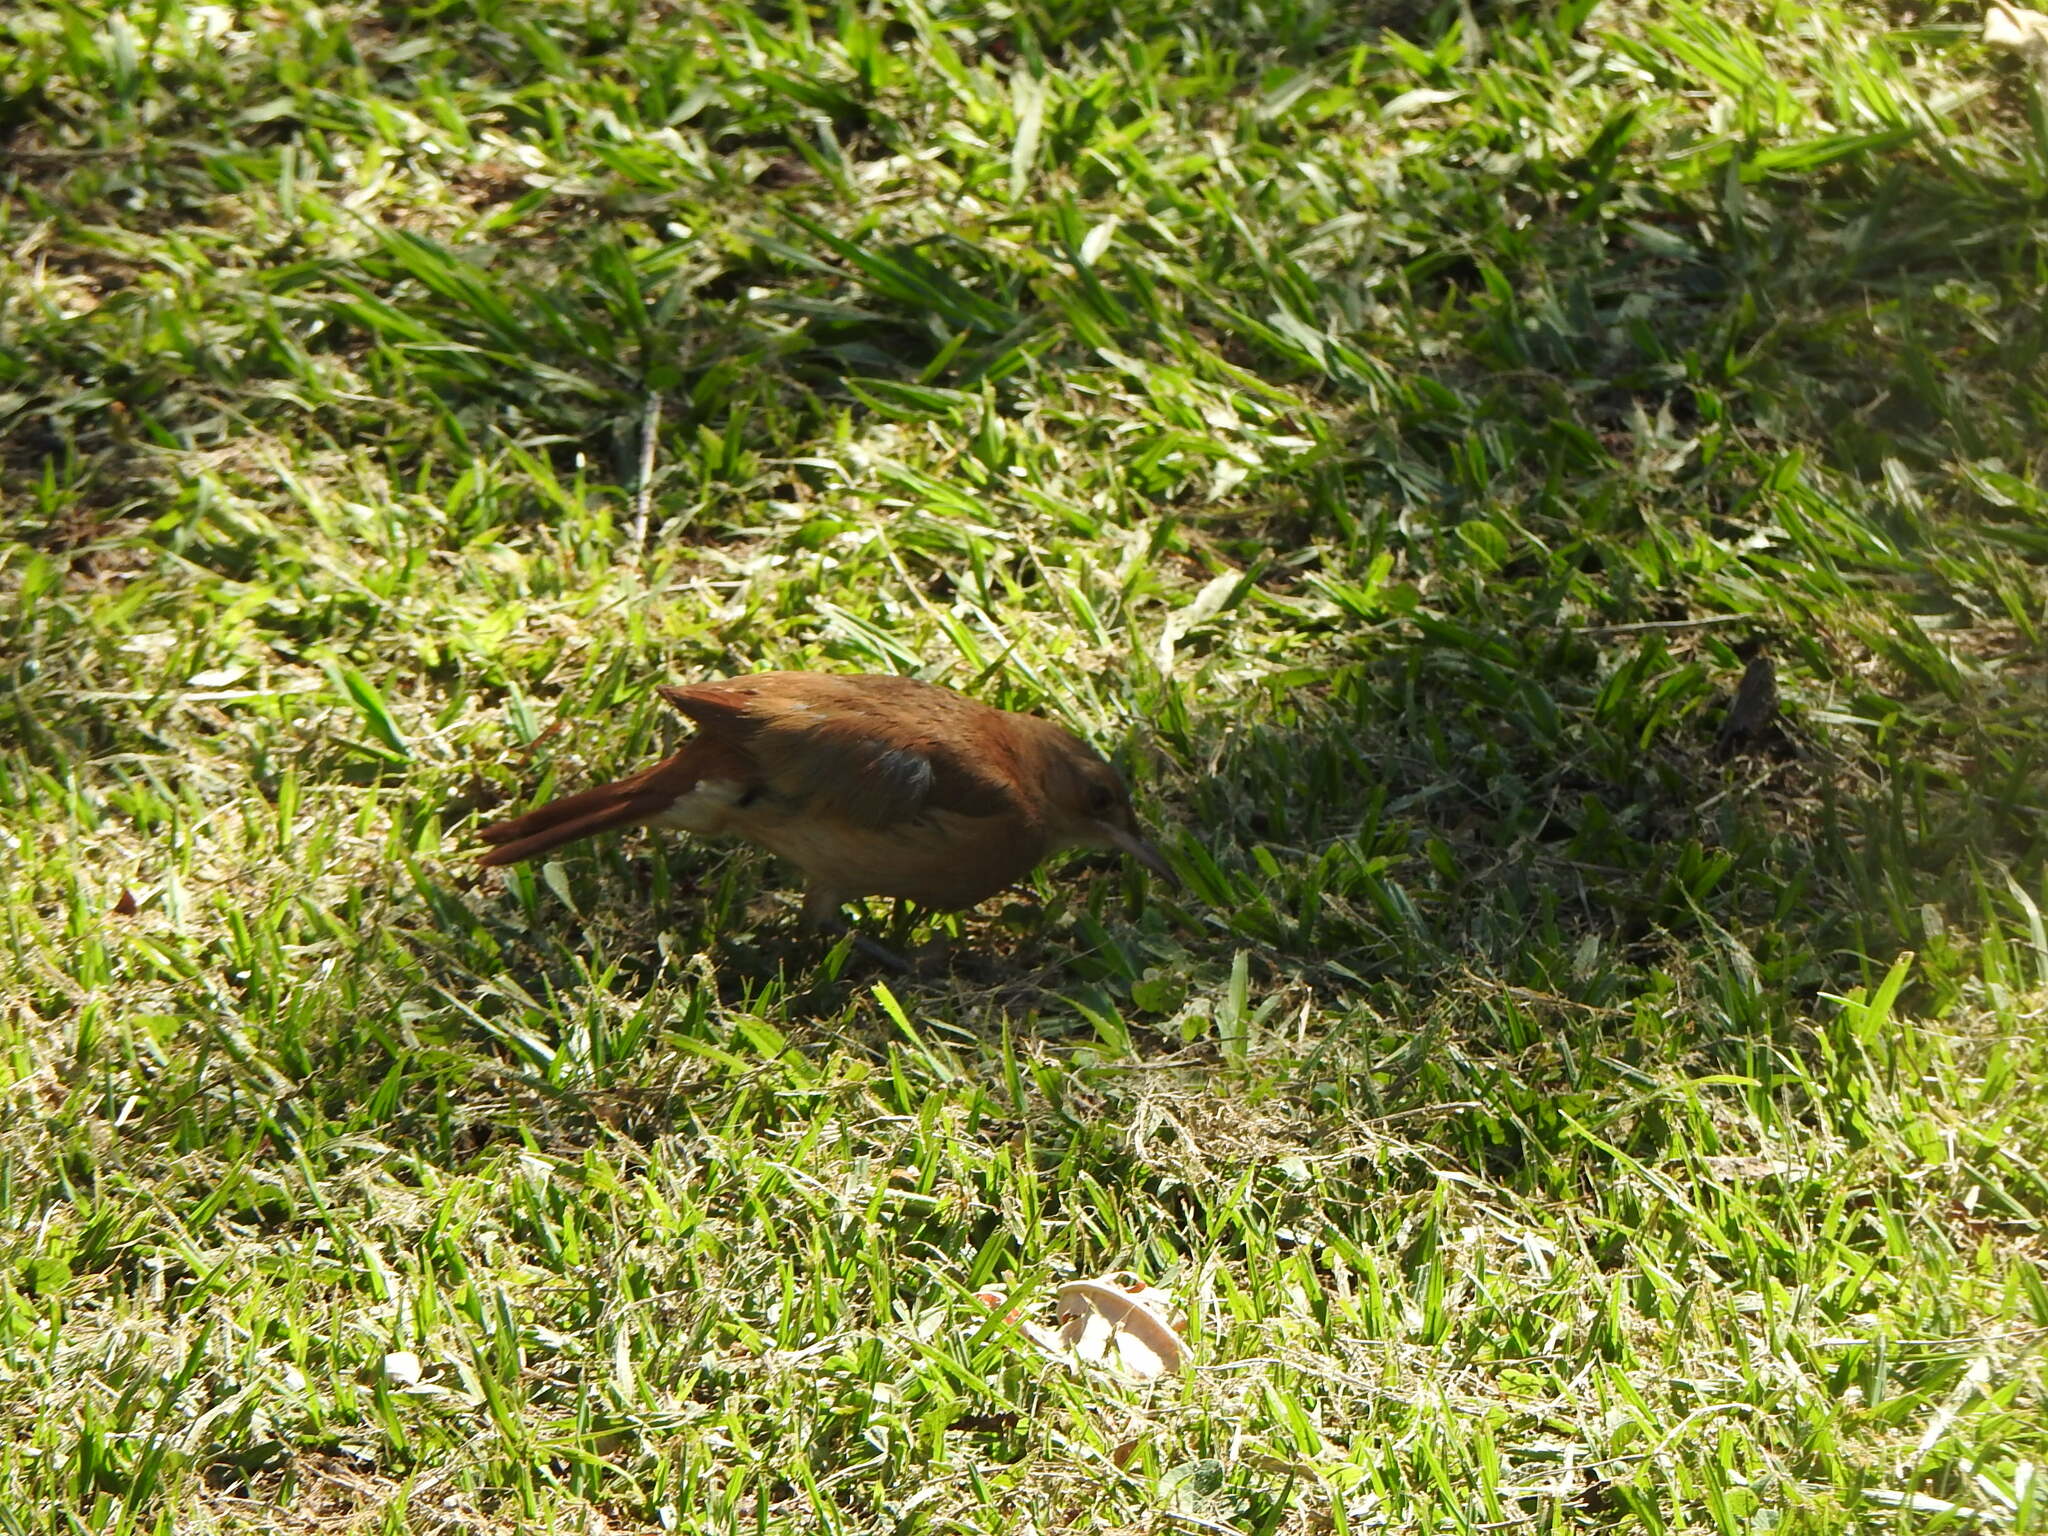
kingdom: Animalia
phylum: Chordata
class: Aves
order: Passeriformes
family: Furnariidae
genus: Furnarius
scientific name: Furnarius rufus
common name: Rufous hornero
